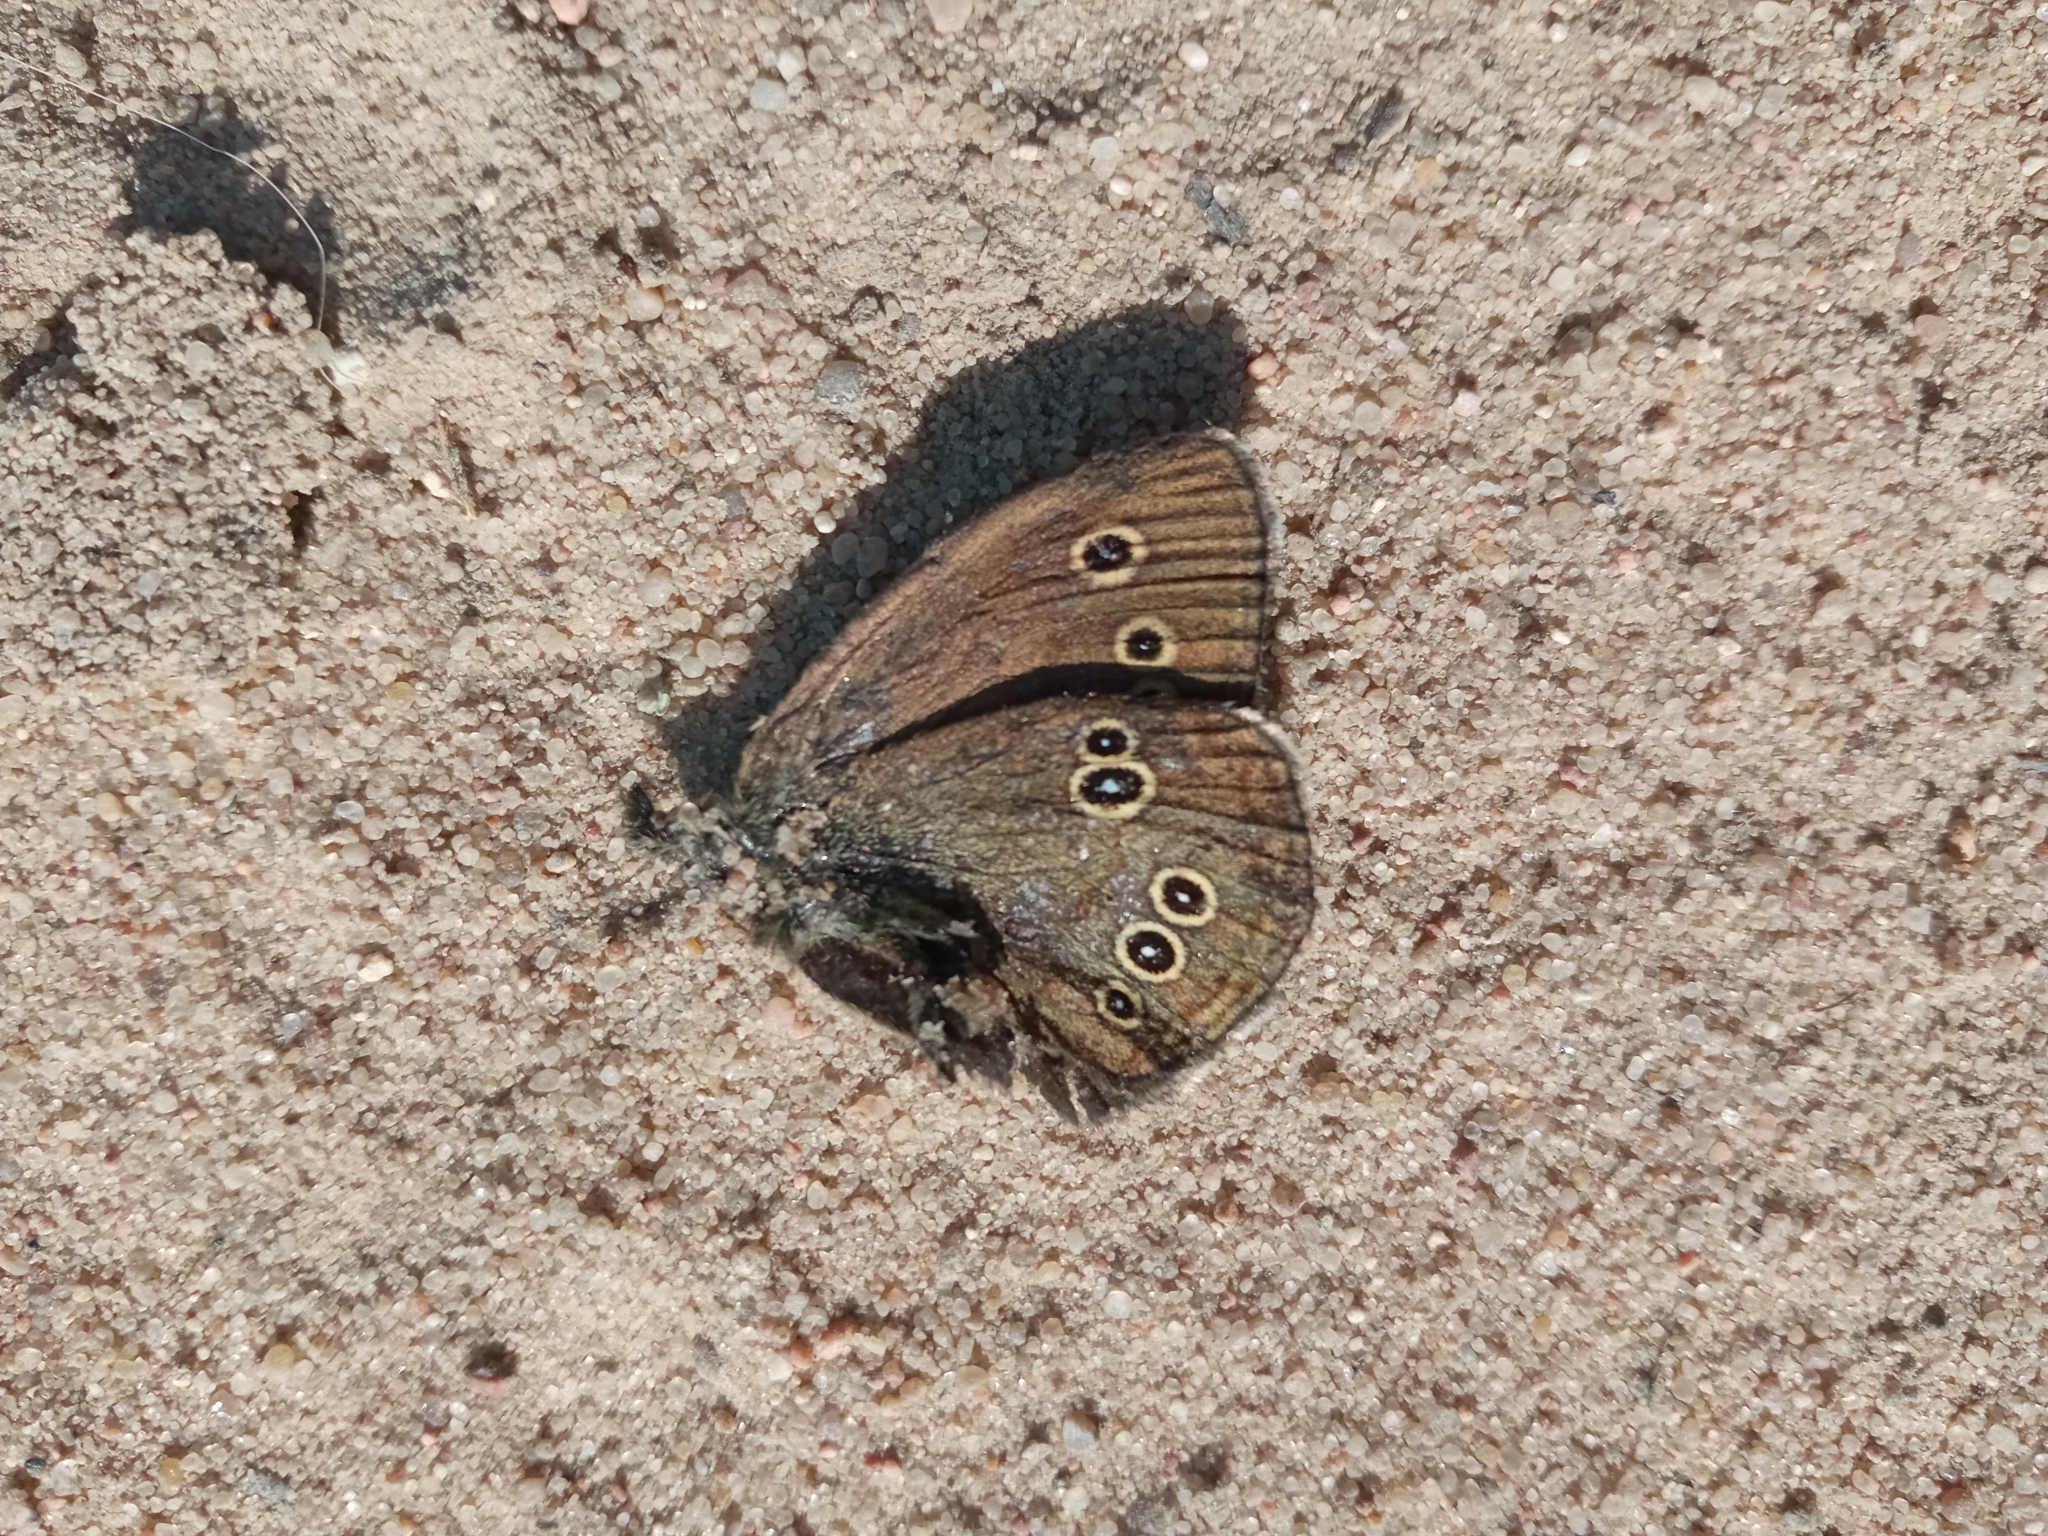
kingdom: Animalia
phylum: Arthropoda
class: Insecta
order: Lepidoptera
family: Nymphalidae
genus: Aphantopus
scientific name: Aphantopus hyperantus
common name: Ringlet
